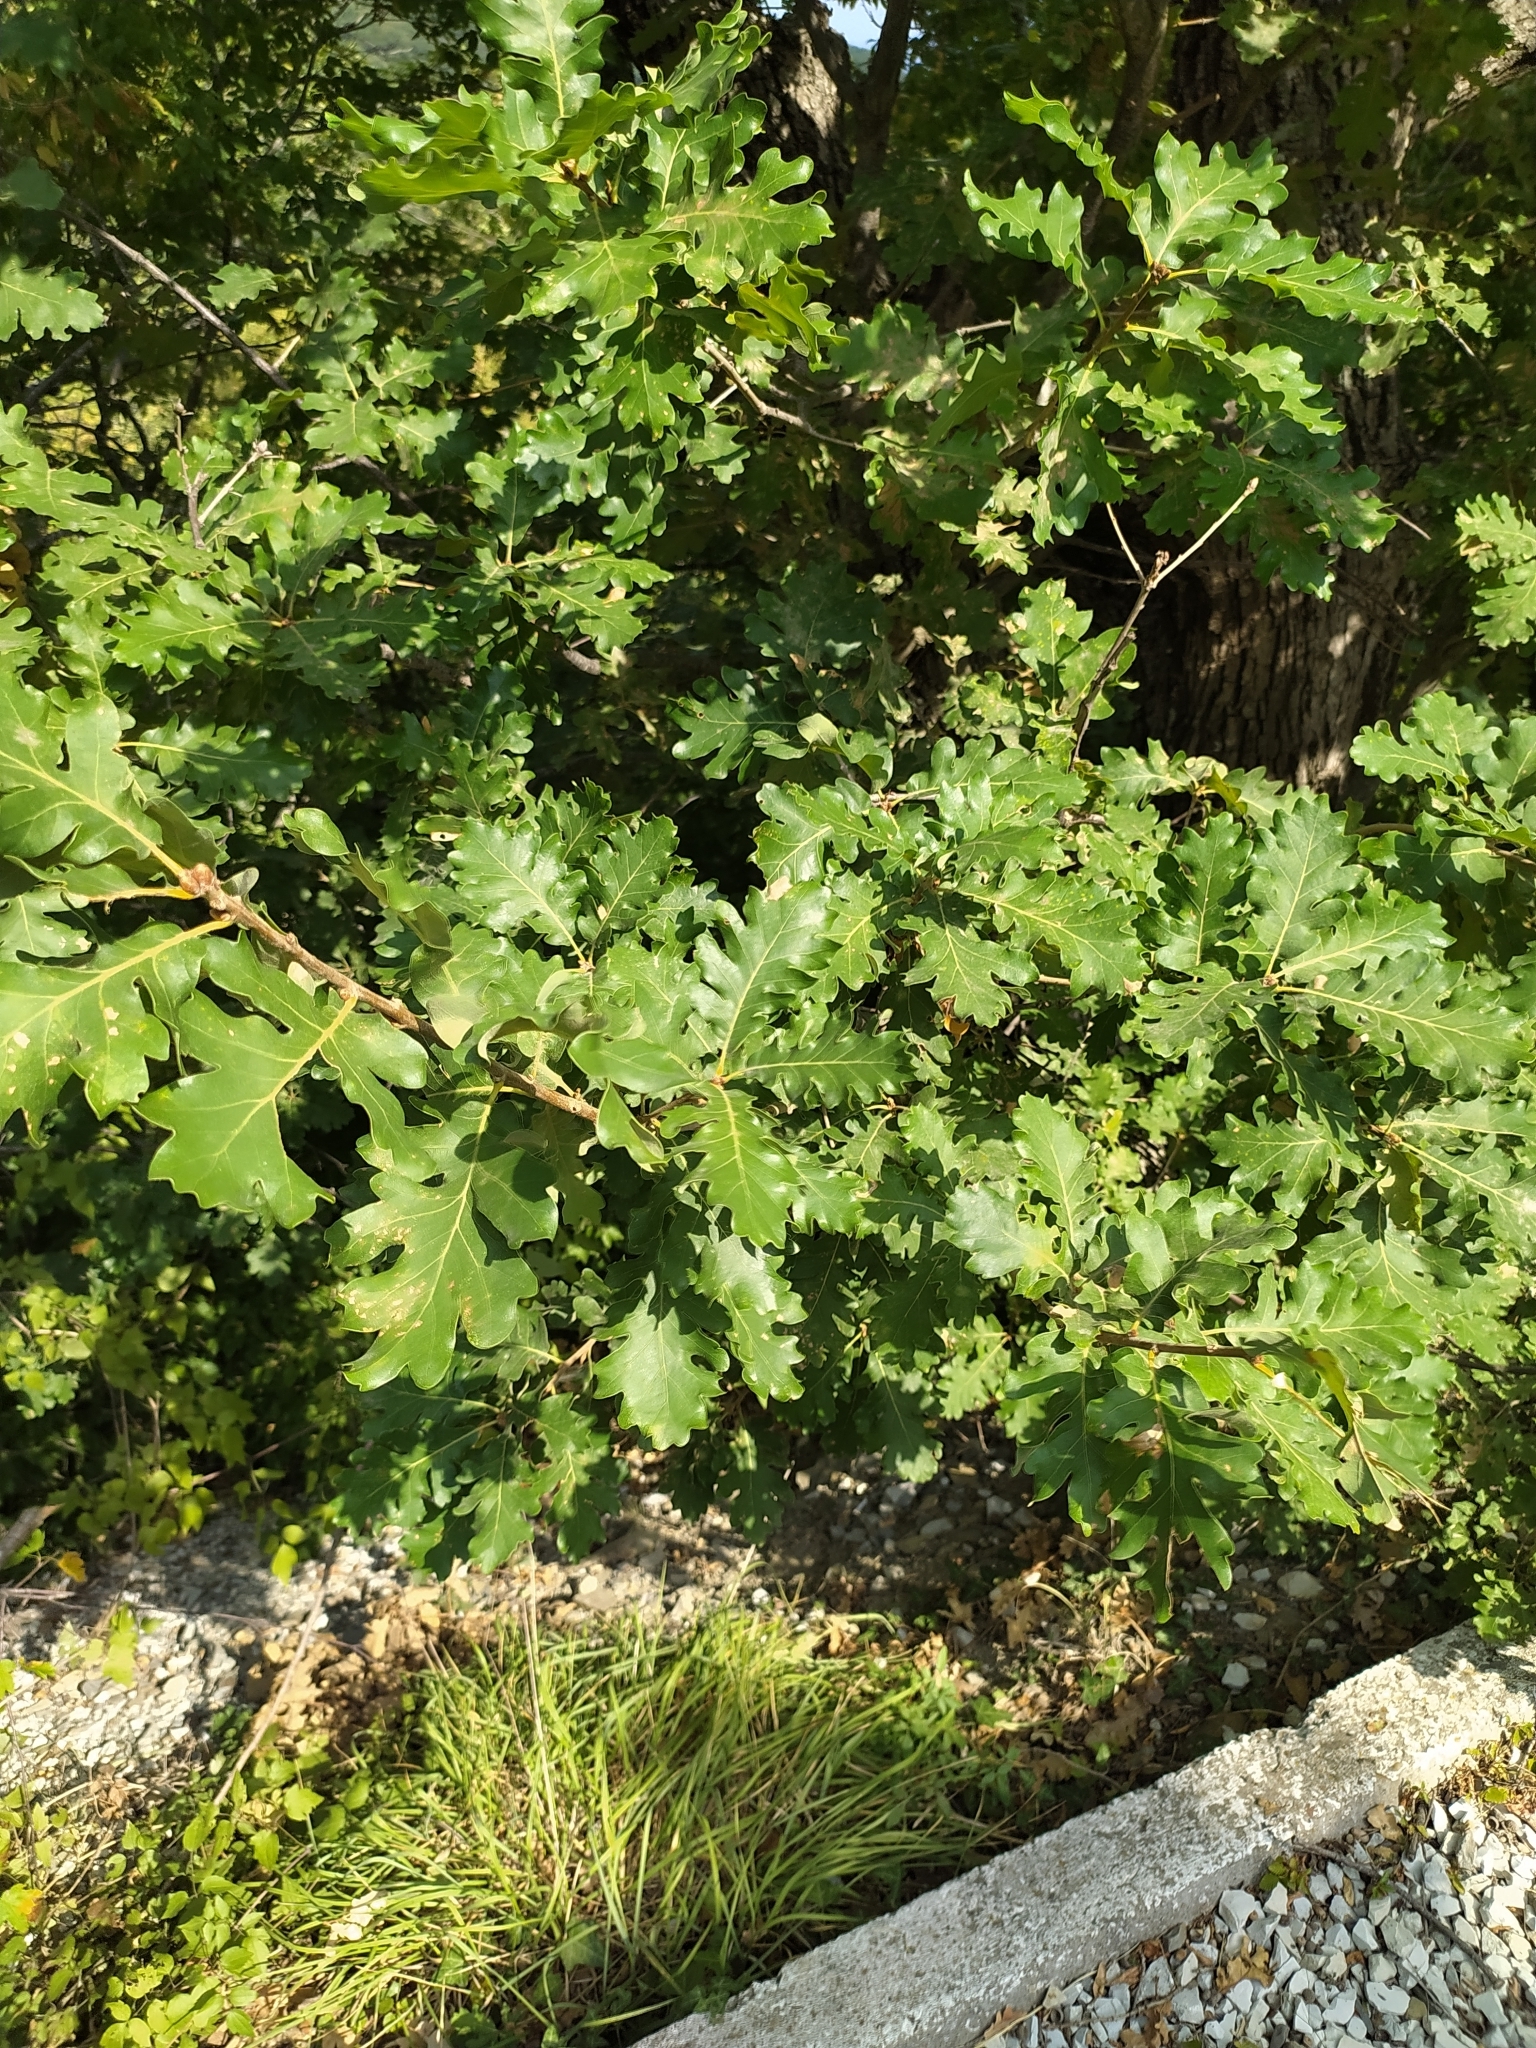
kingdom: Plantae
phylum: Tracheophyta
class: Magnoliopsida
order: Fagales
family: Fagaceae
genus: Quercus
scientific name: Quercus petraea
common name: Sessile oak
